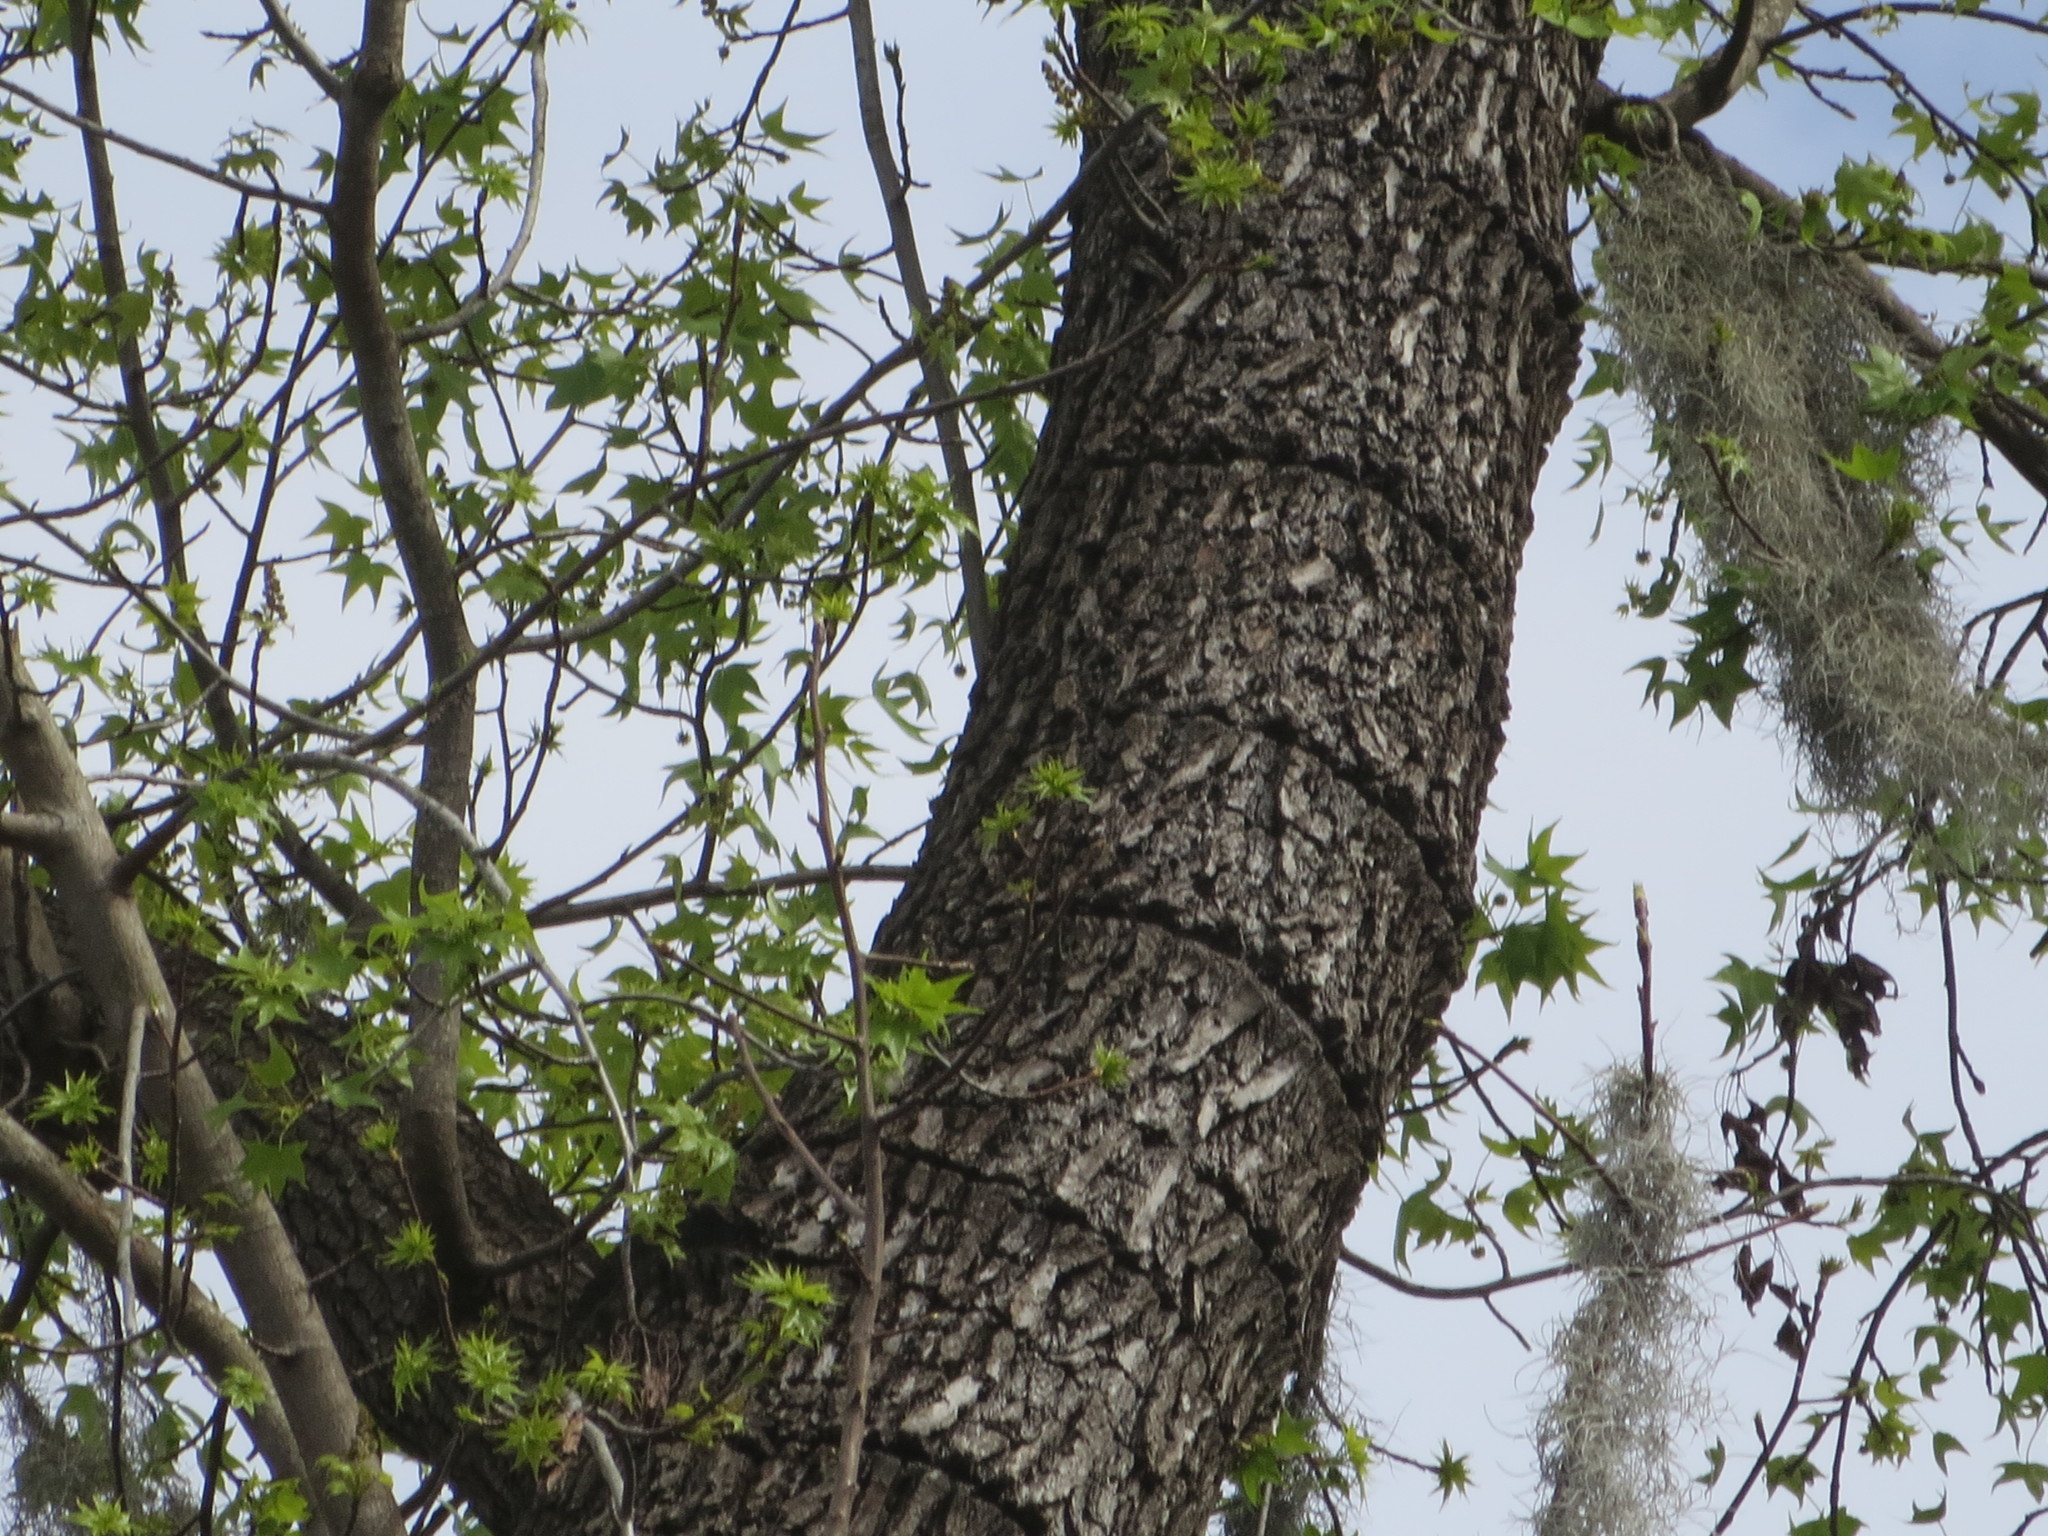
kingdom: Plantae
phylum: Tracheophyta
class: Magnoliopsida
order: Saxifragales
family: Altingiaceae
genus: Liquidambar
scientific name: Liquidambar styraciflua
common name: Sweet gum
